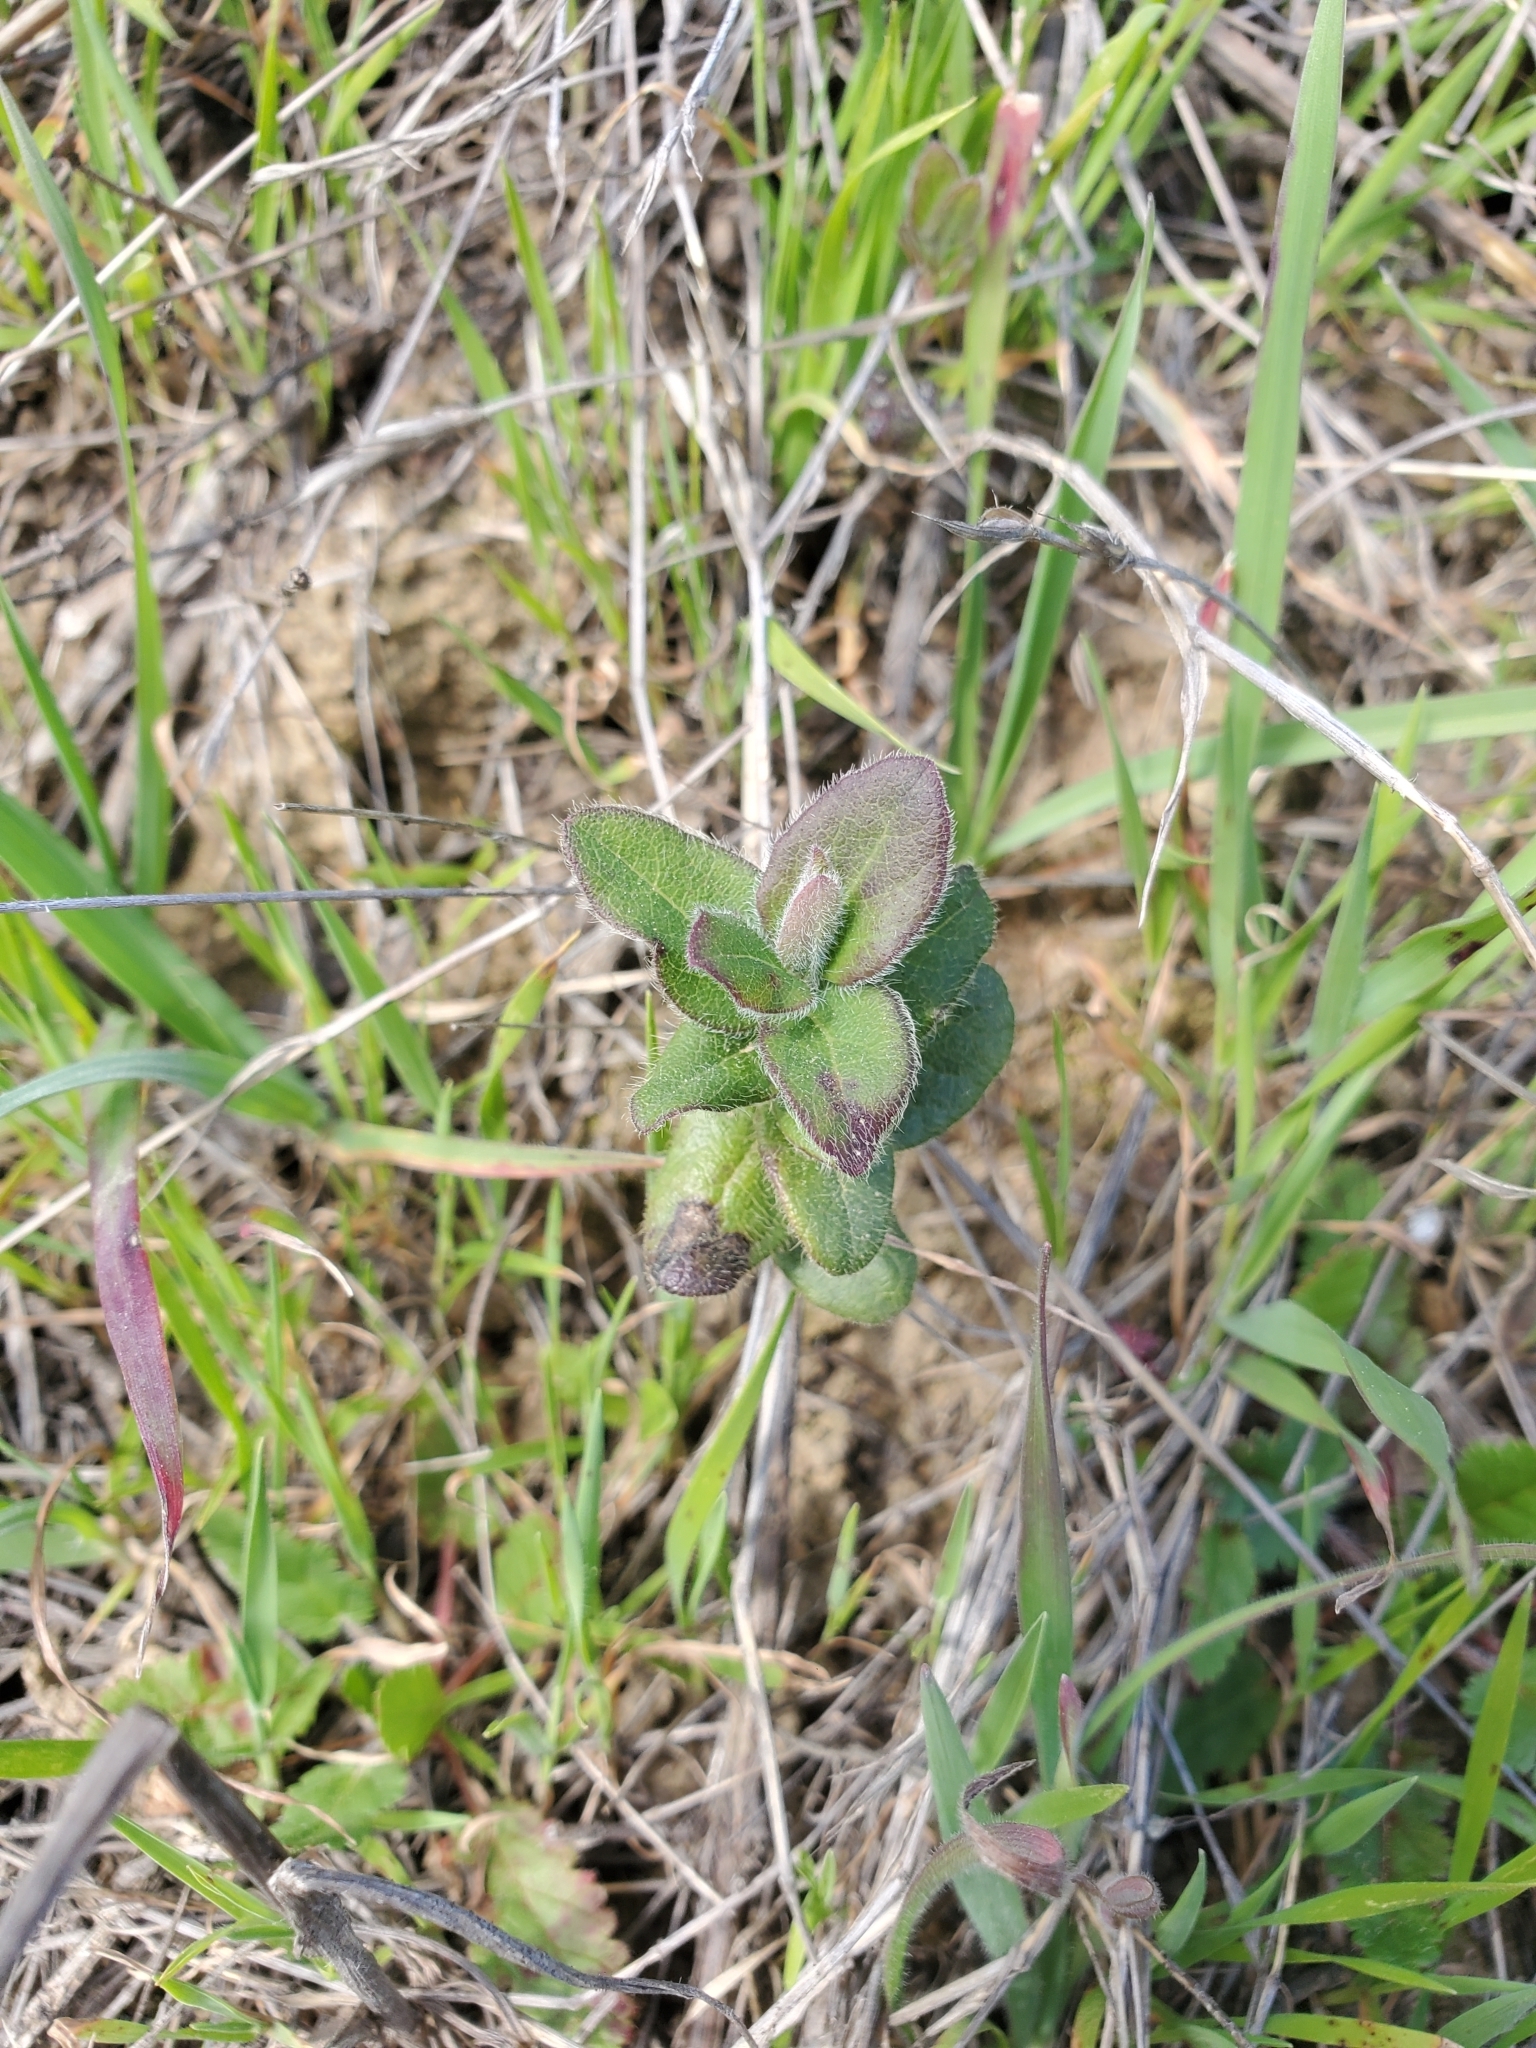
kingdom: Plantae
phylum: Tracheophyta
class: Magnoliopsida
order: Dipsacales
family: Caprifoliaceae
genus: Lonicera
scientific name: Lonicera hispidula
